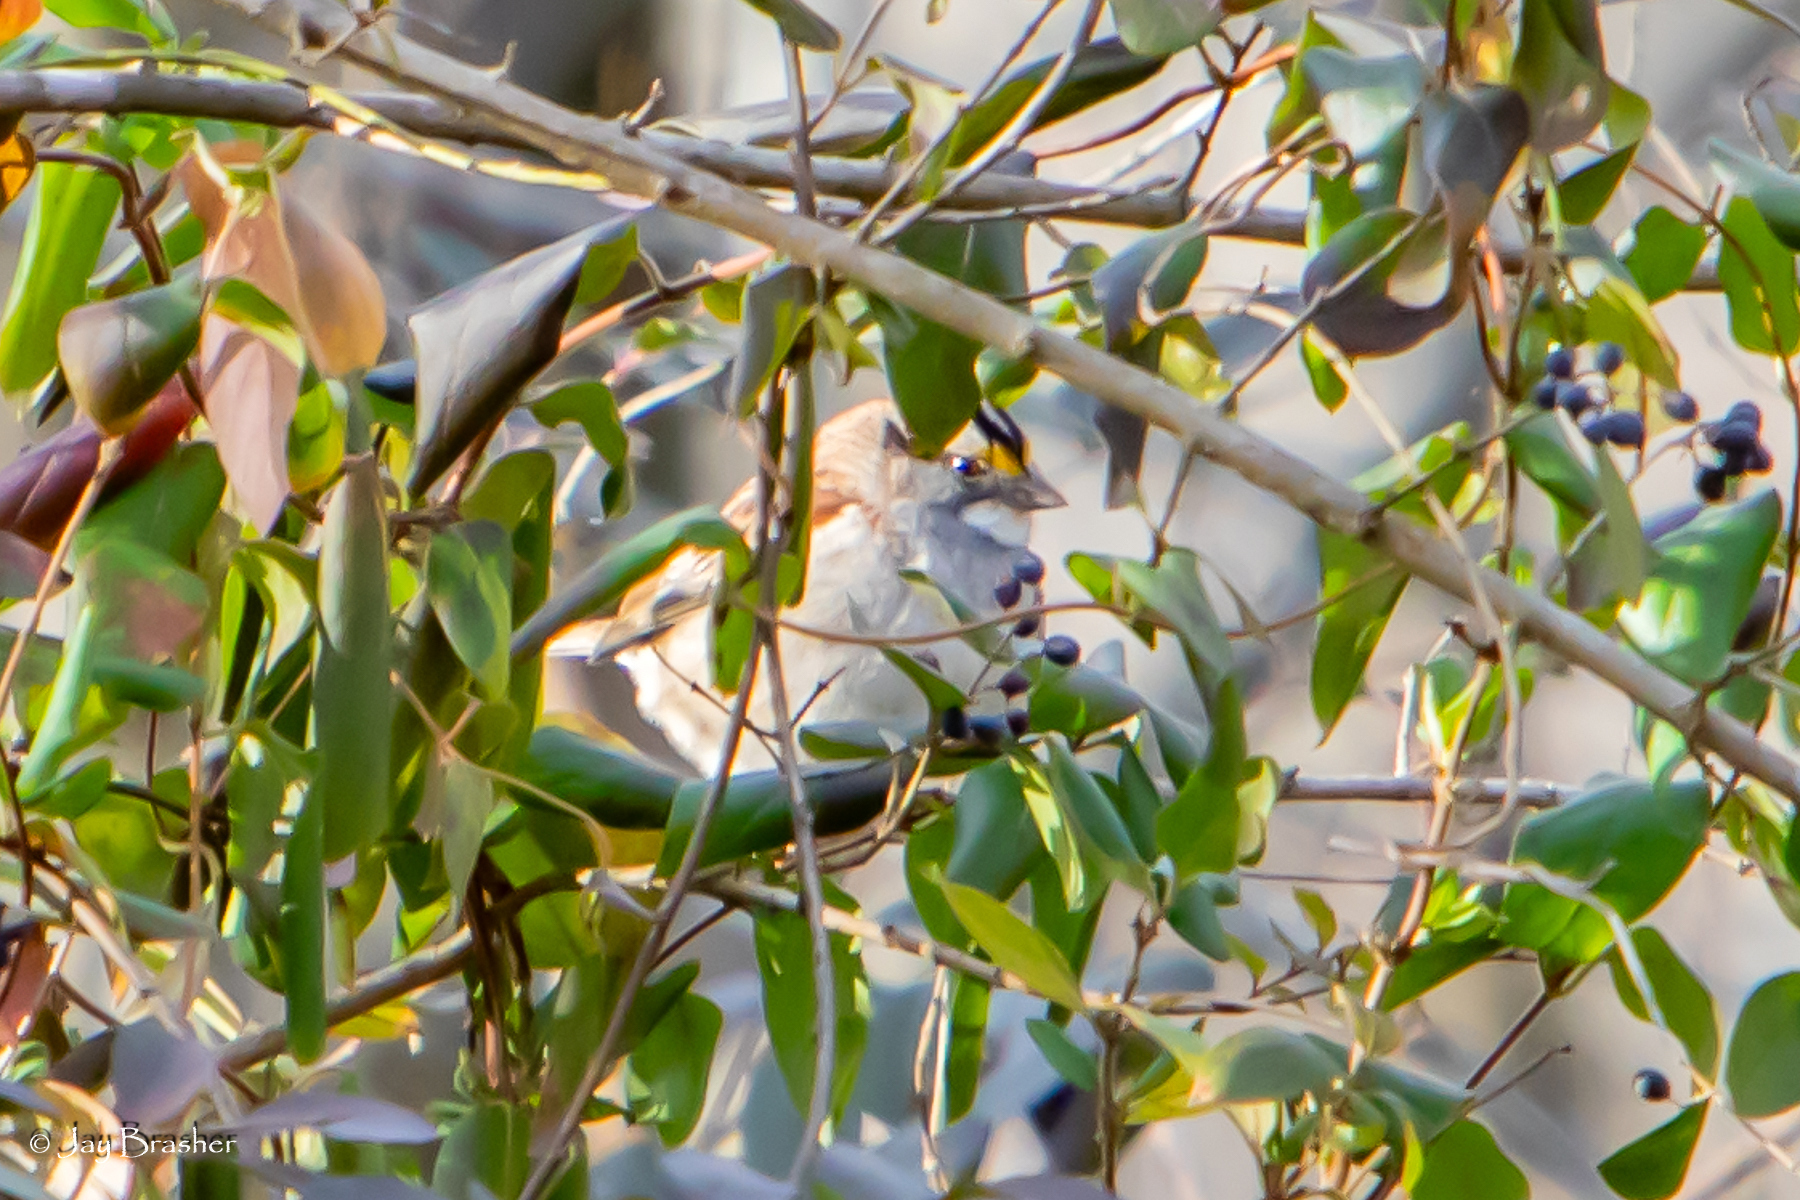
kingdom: Animalia
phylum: Chordata
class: Aves
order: Passeriformes
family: Passerellidae
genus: Zonotrichia
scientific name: Zonotrichia albicollis
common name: White-throated sparrow
